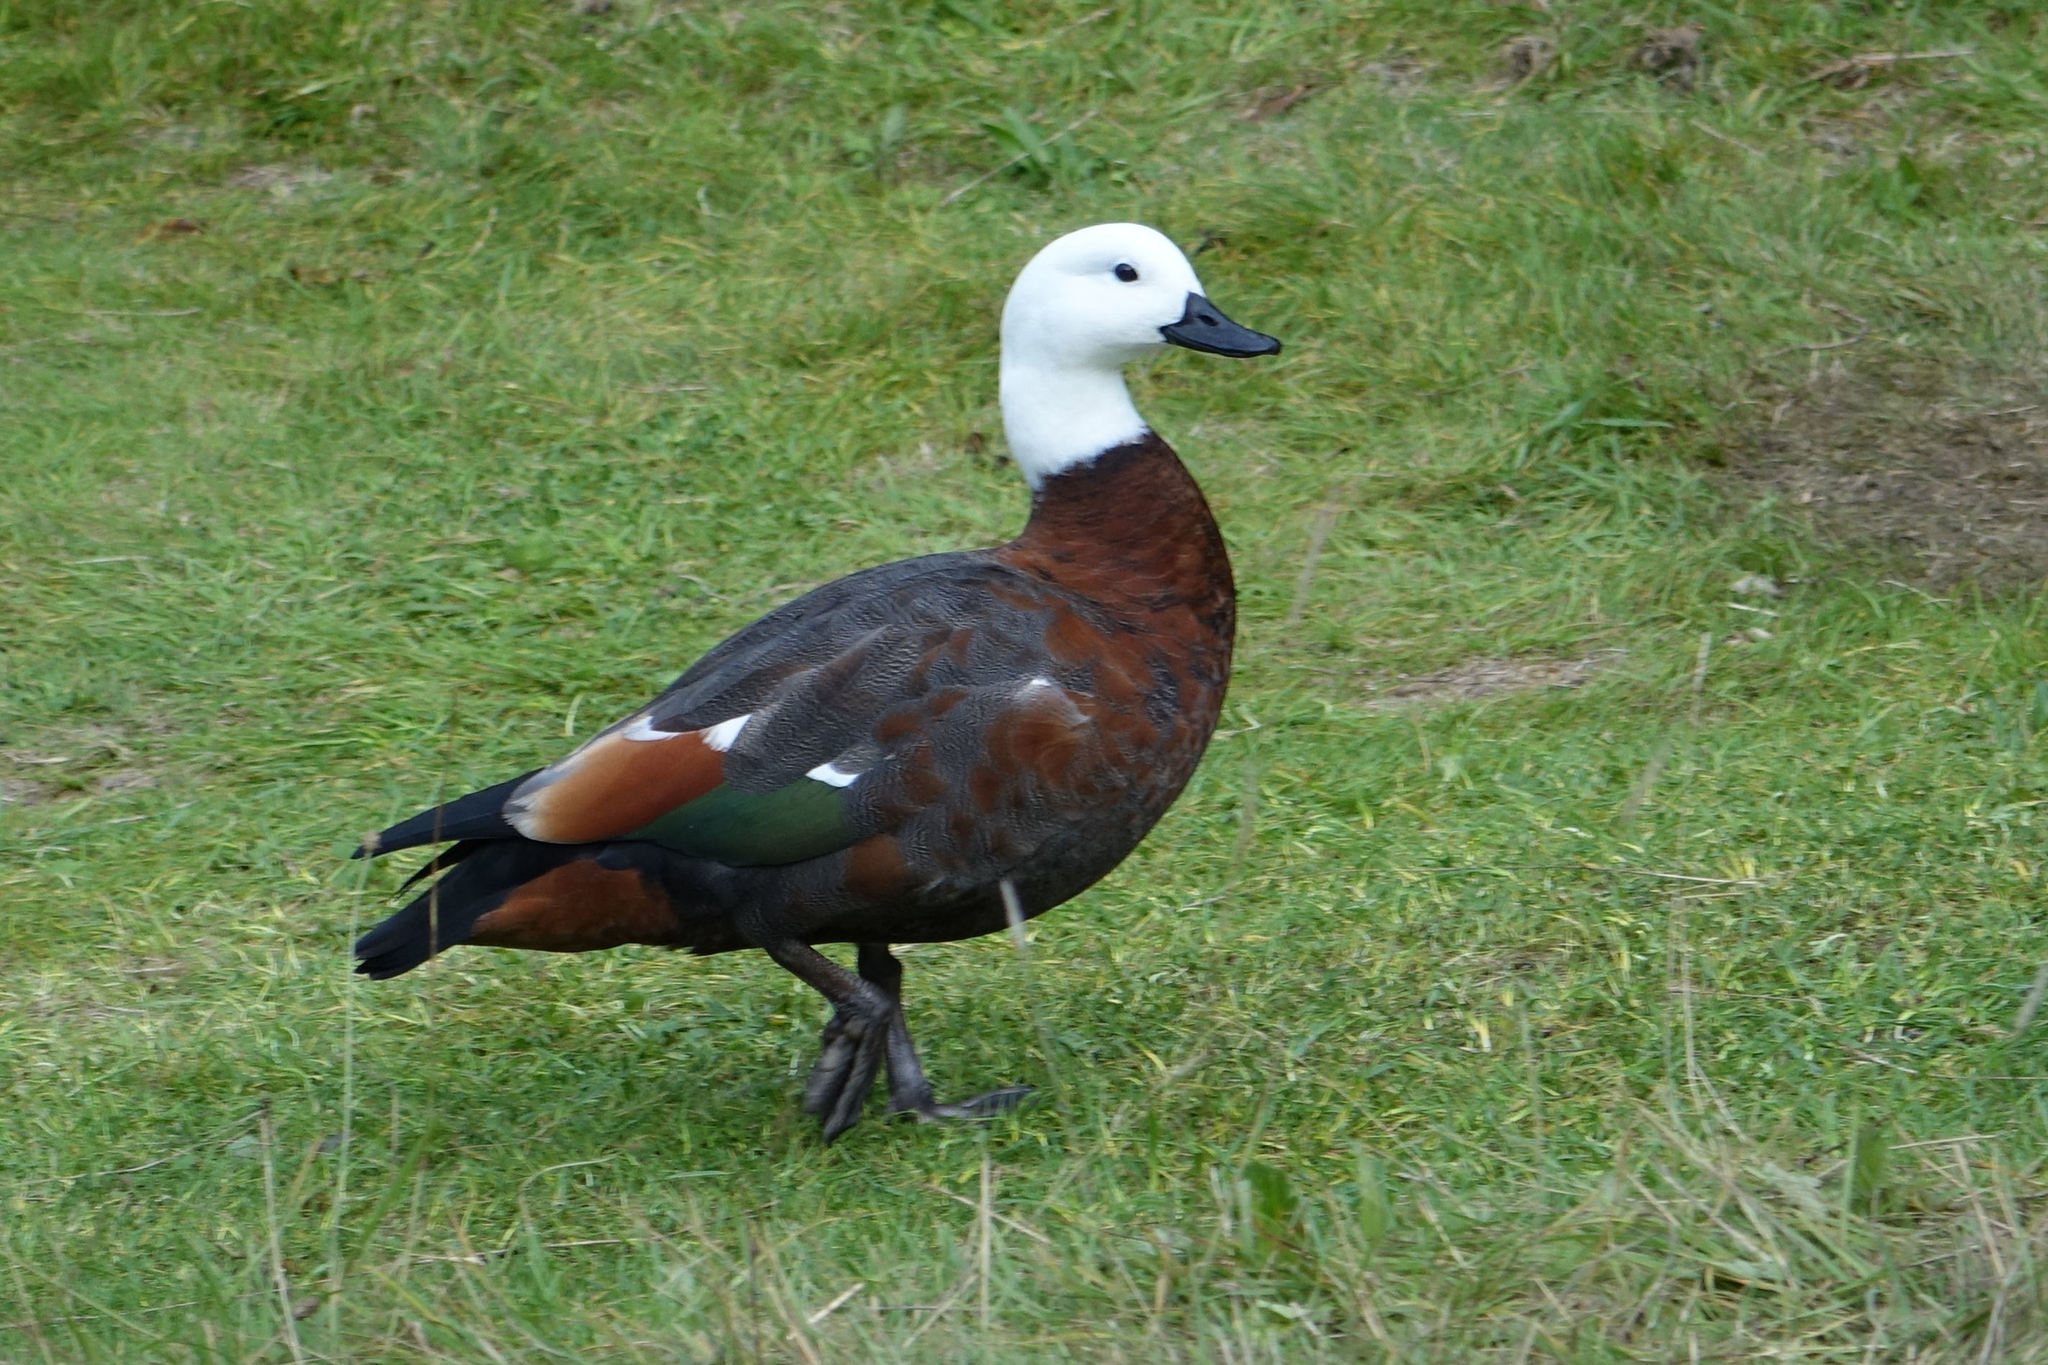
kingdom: Animalia
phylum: Chordata
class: Aves
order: Anseriformes
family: Anatidae
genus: Tadorna
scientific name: Tadorna variegata
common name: Paradise shelduck
